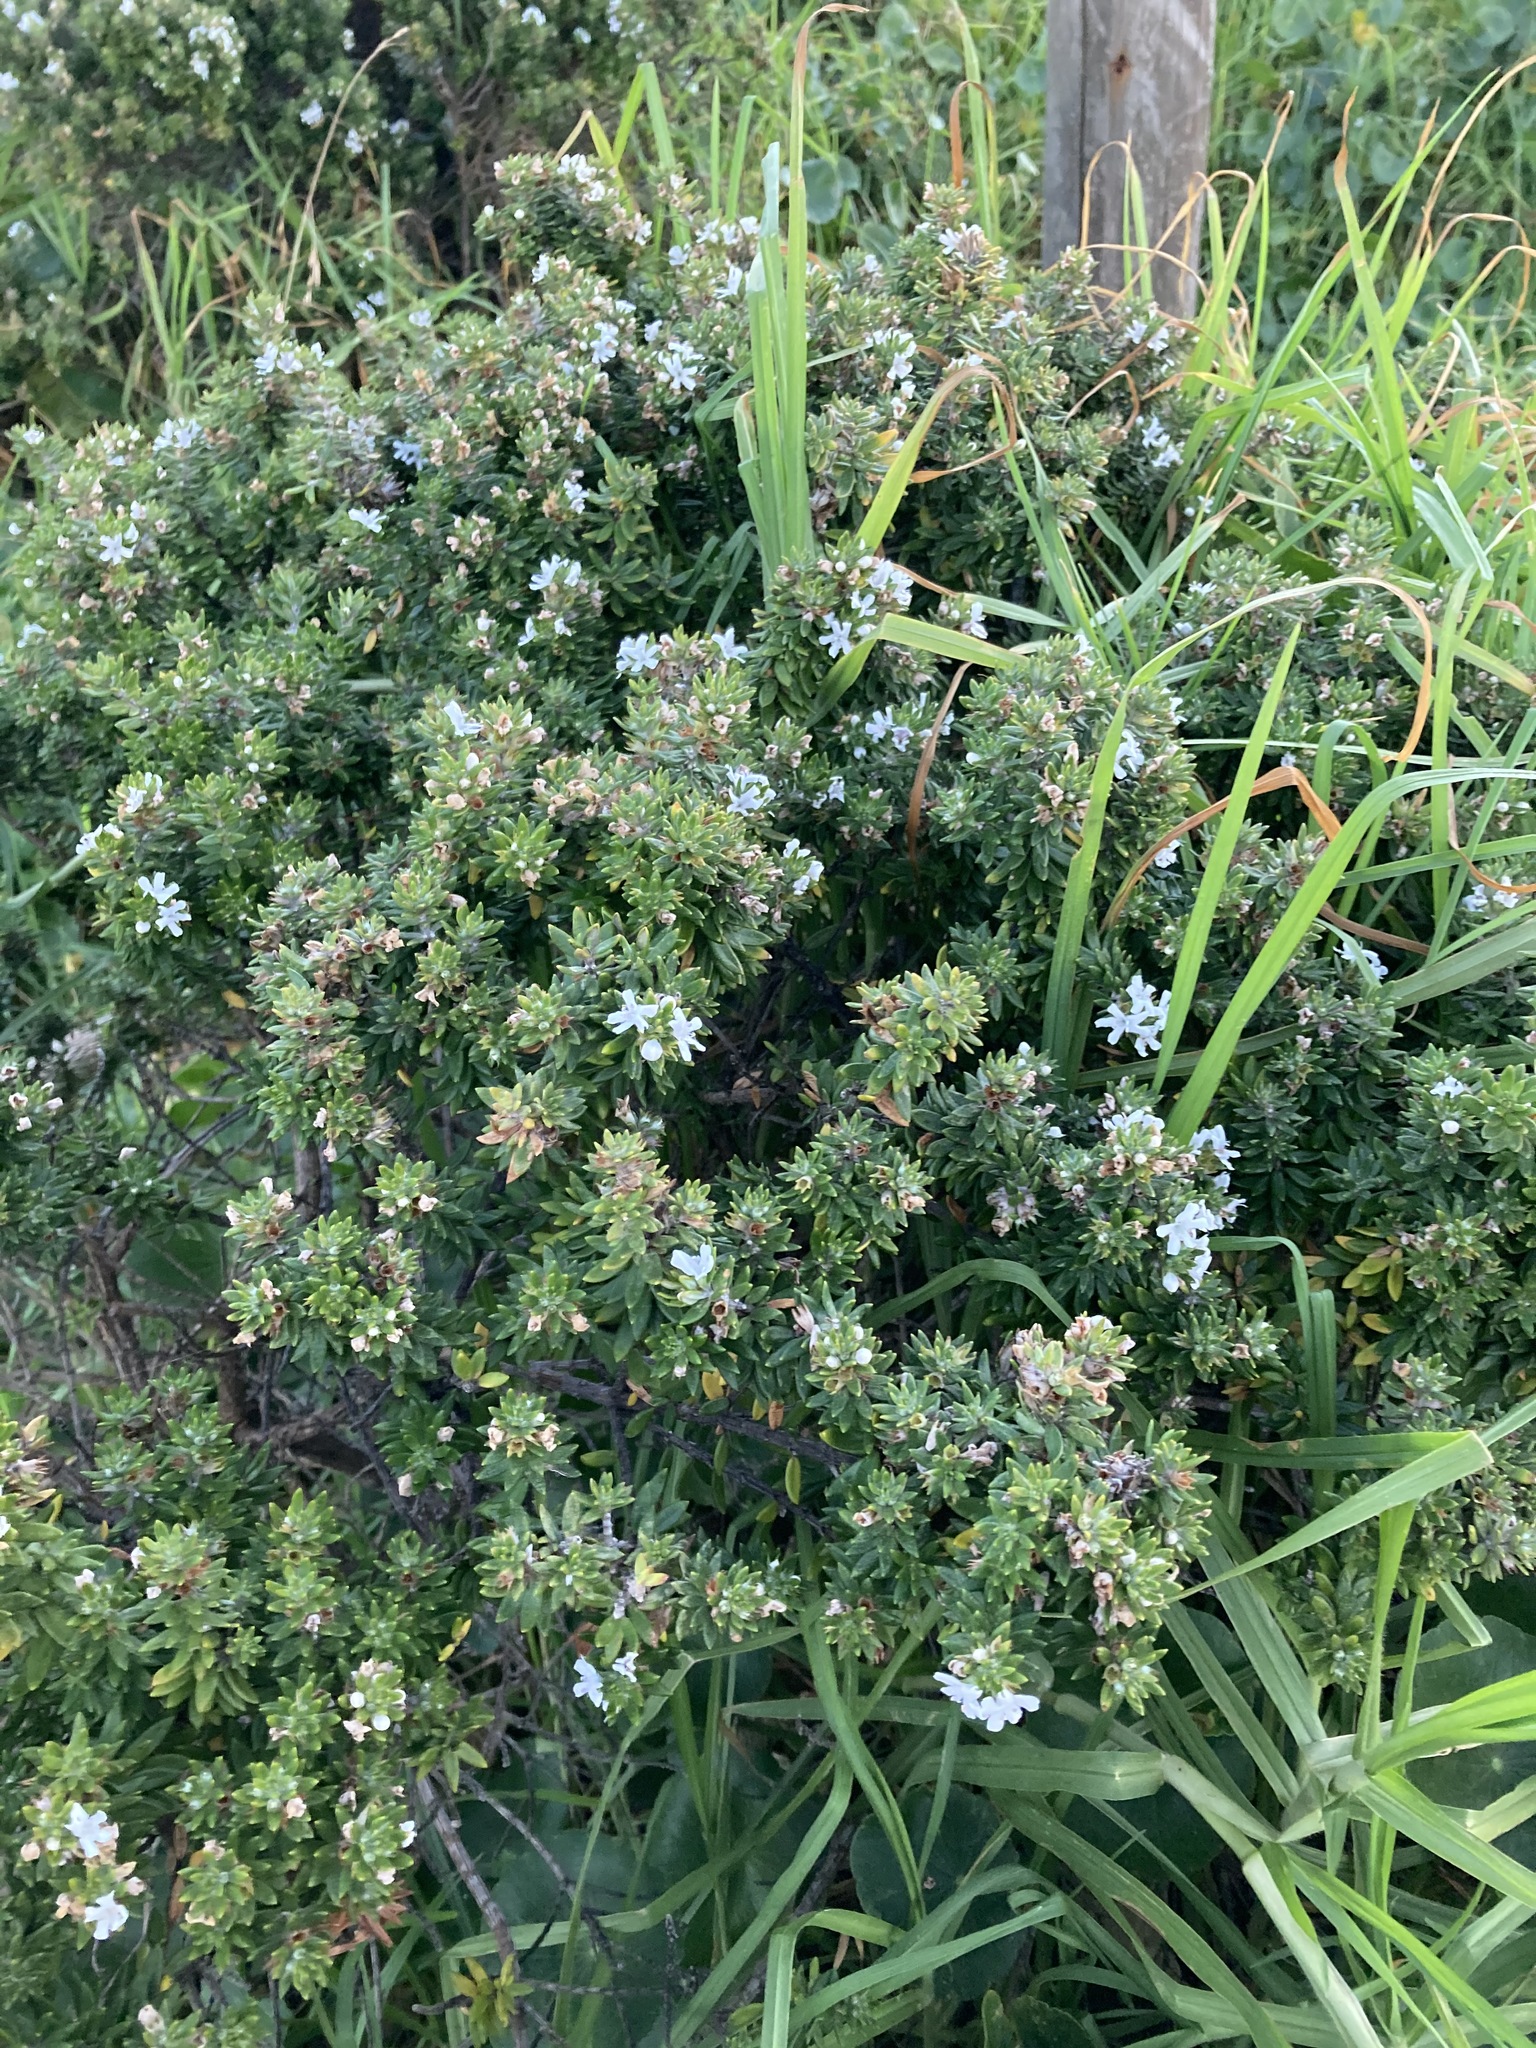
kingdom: Plantae
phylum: Tracheophyta
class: Magnoliopsida
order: Lamiales
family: Lamiaceae
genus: Westringia
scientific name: Westringia fruticosa
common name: Coastal-rosemary
